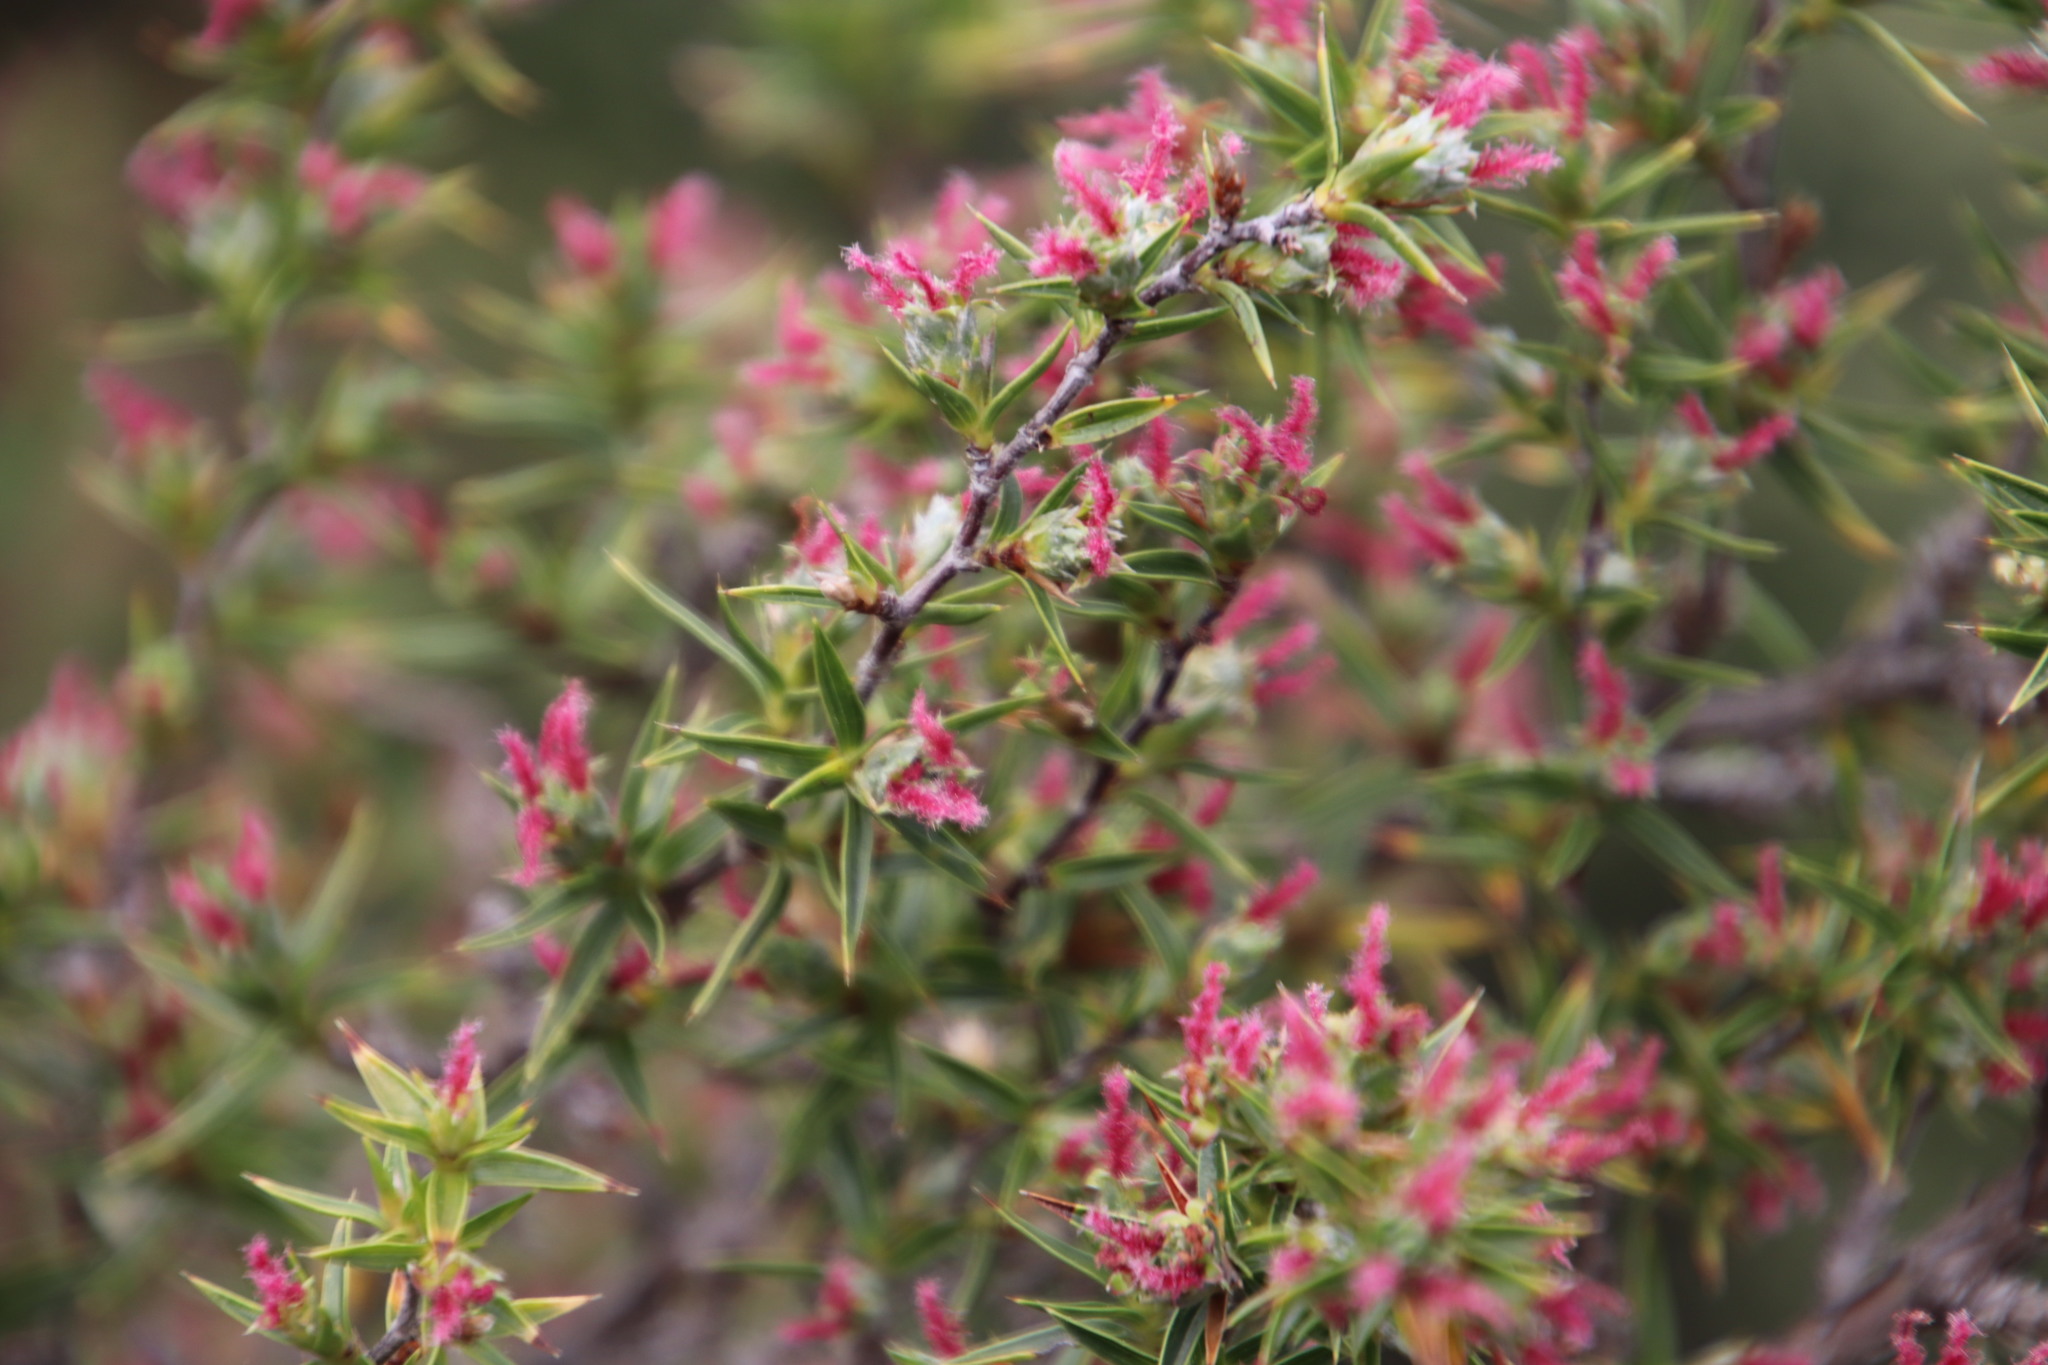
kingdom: Plantae
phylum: Tracheophyta
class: Magnoliopsida
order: Rosales
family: Rosaceae
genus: Cliffortia
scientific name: Cliffortia ruscifolia
